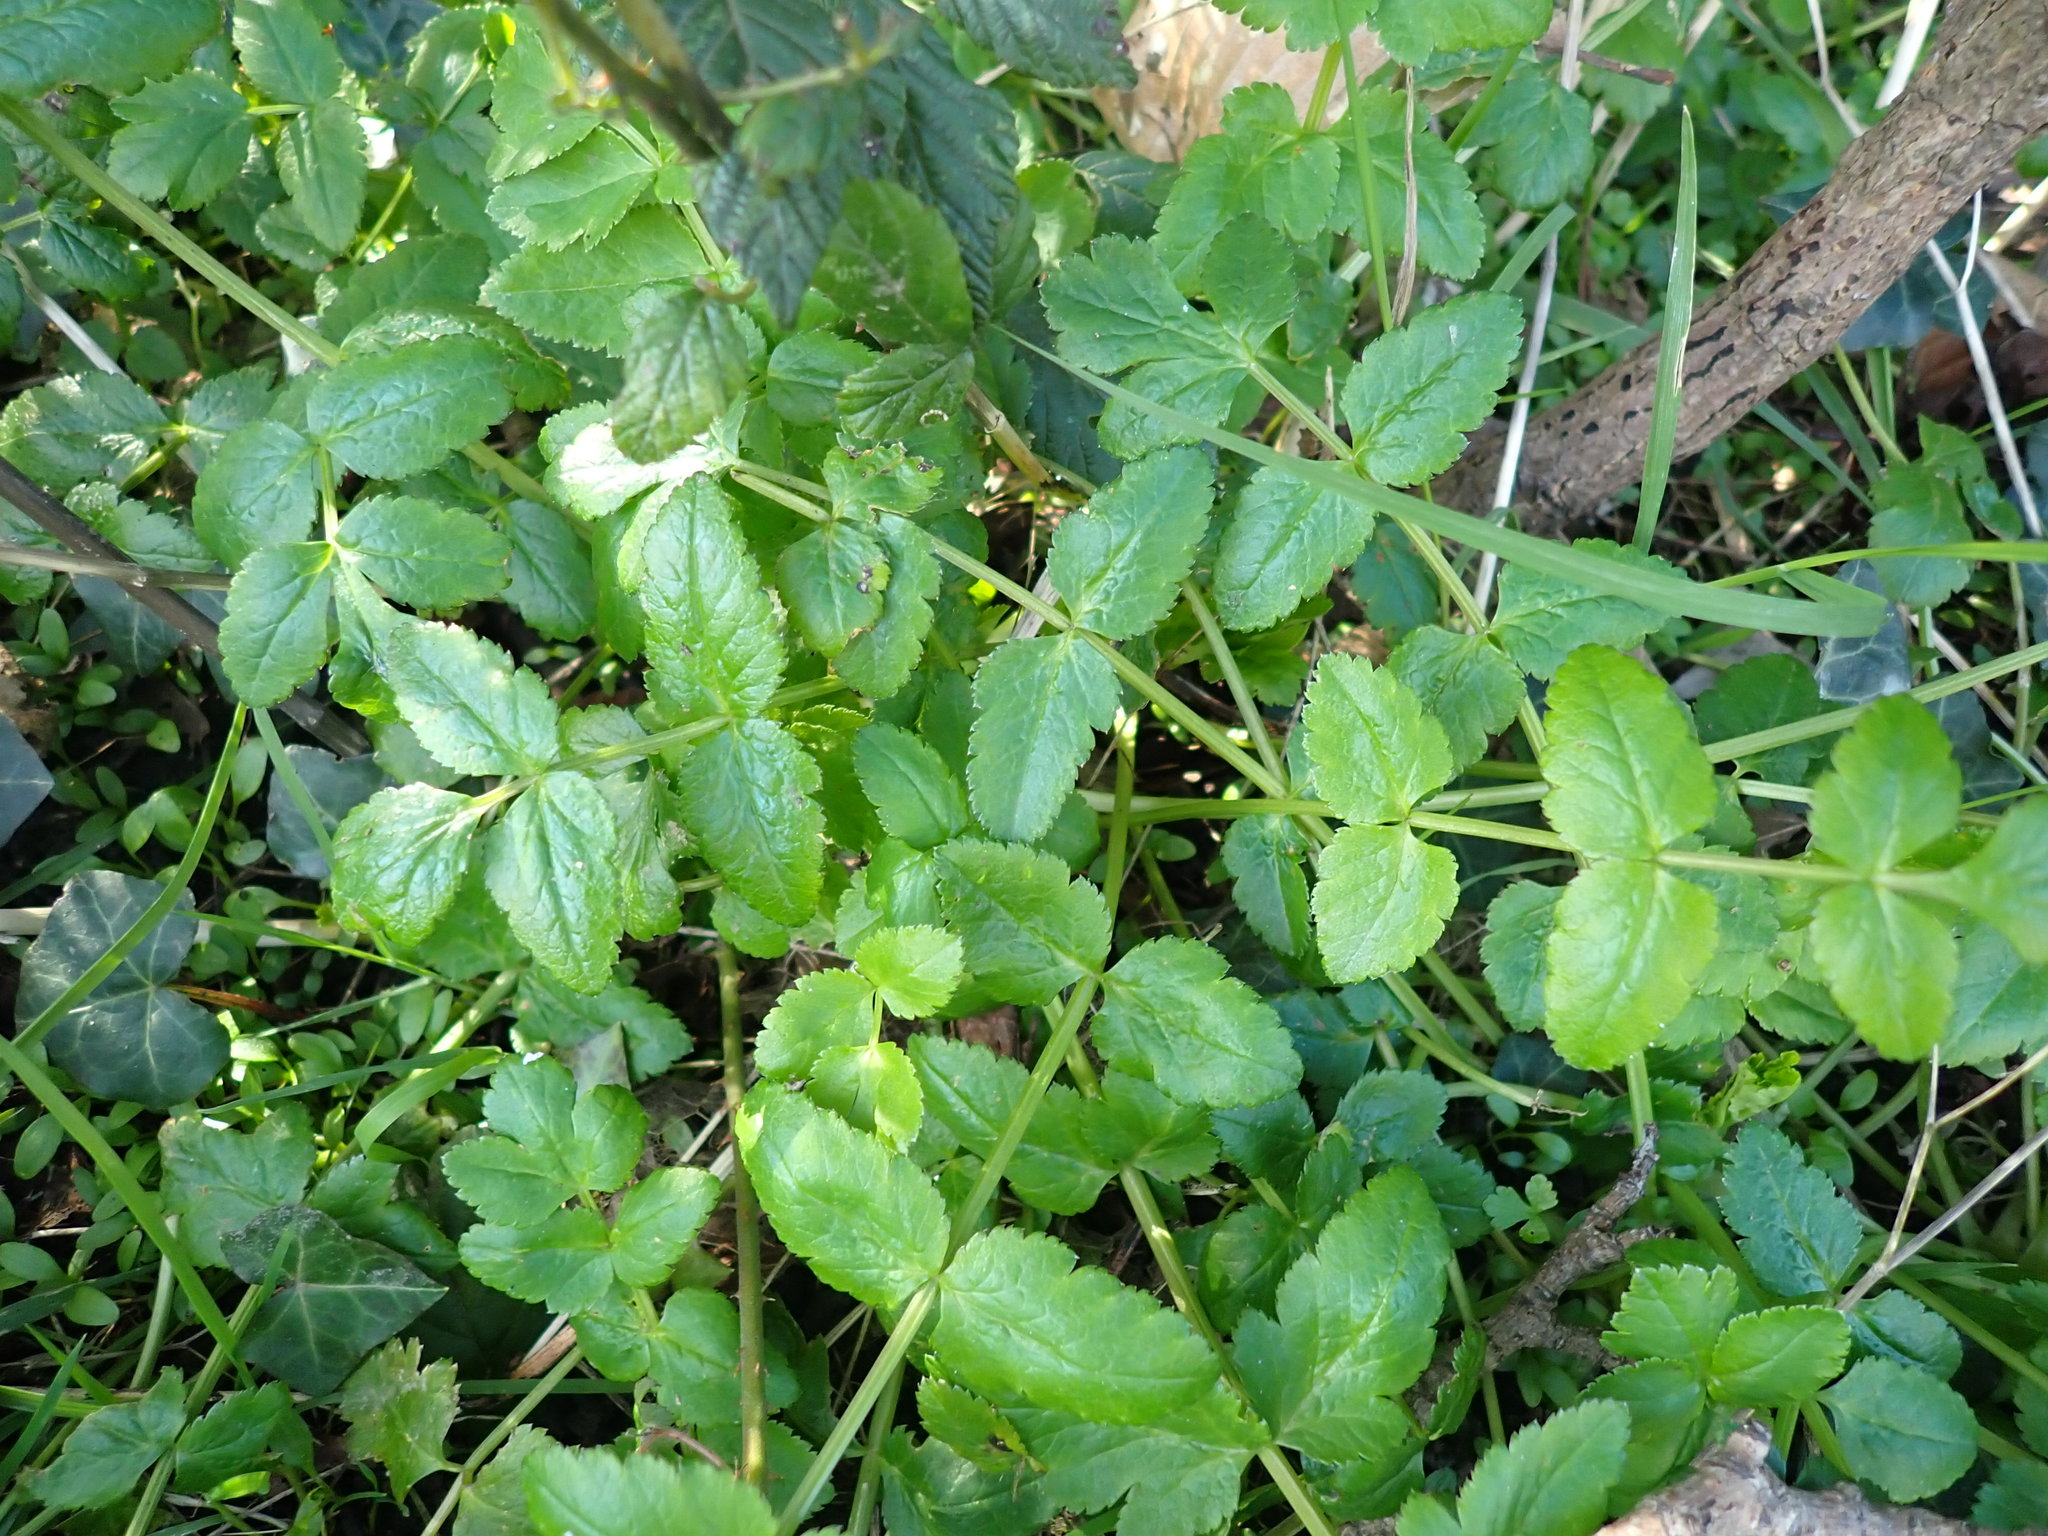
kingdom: Plantae
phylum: Tracheophyta
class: Magnoliopsida
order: Apiales
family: Apiaceae
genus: Pastinaca
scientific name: Pastinaca sativa
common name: Wild parsnip
